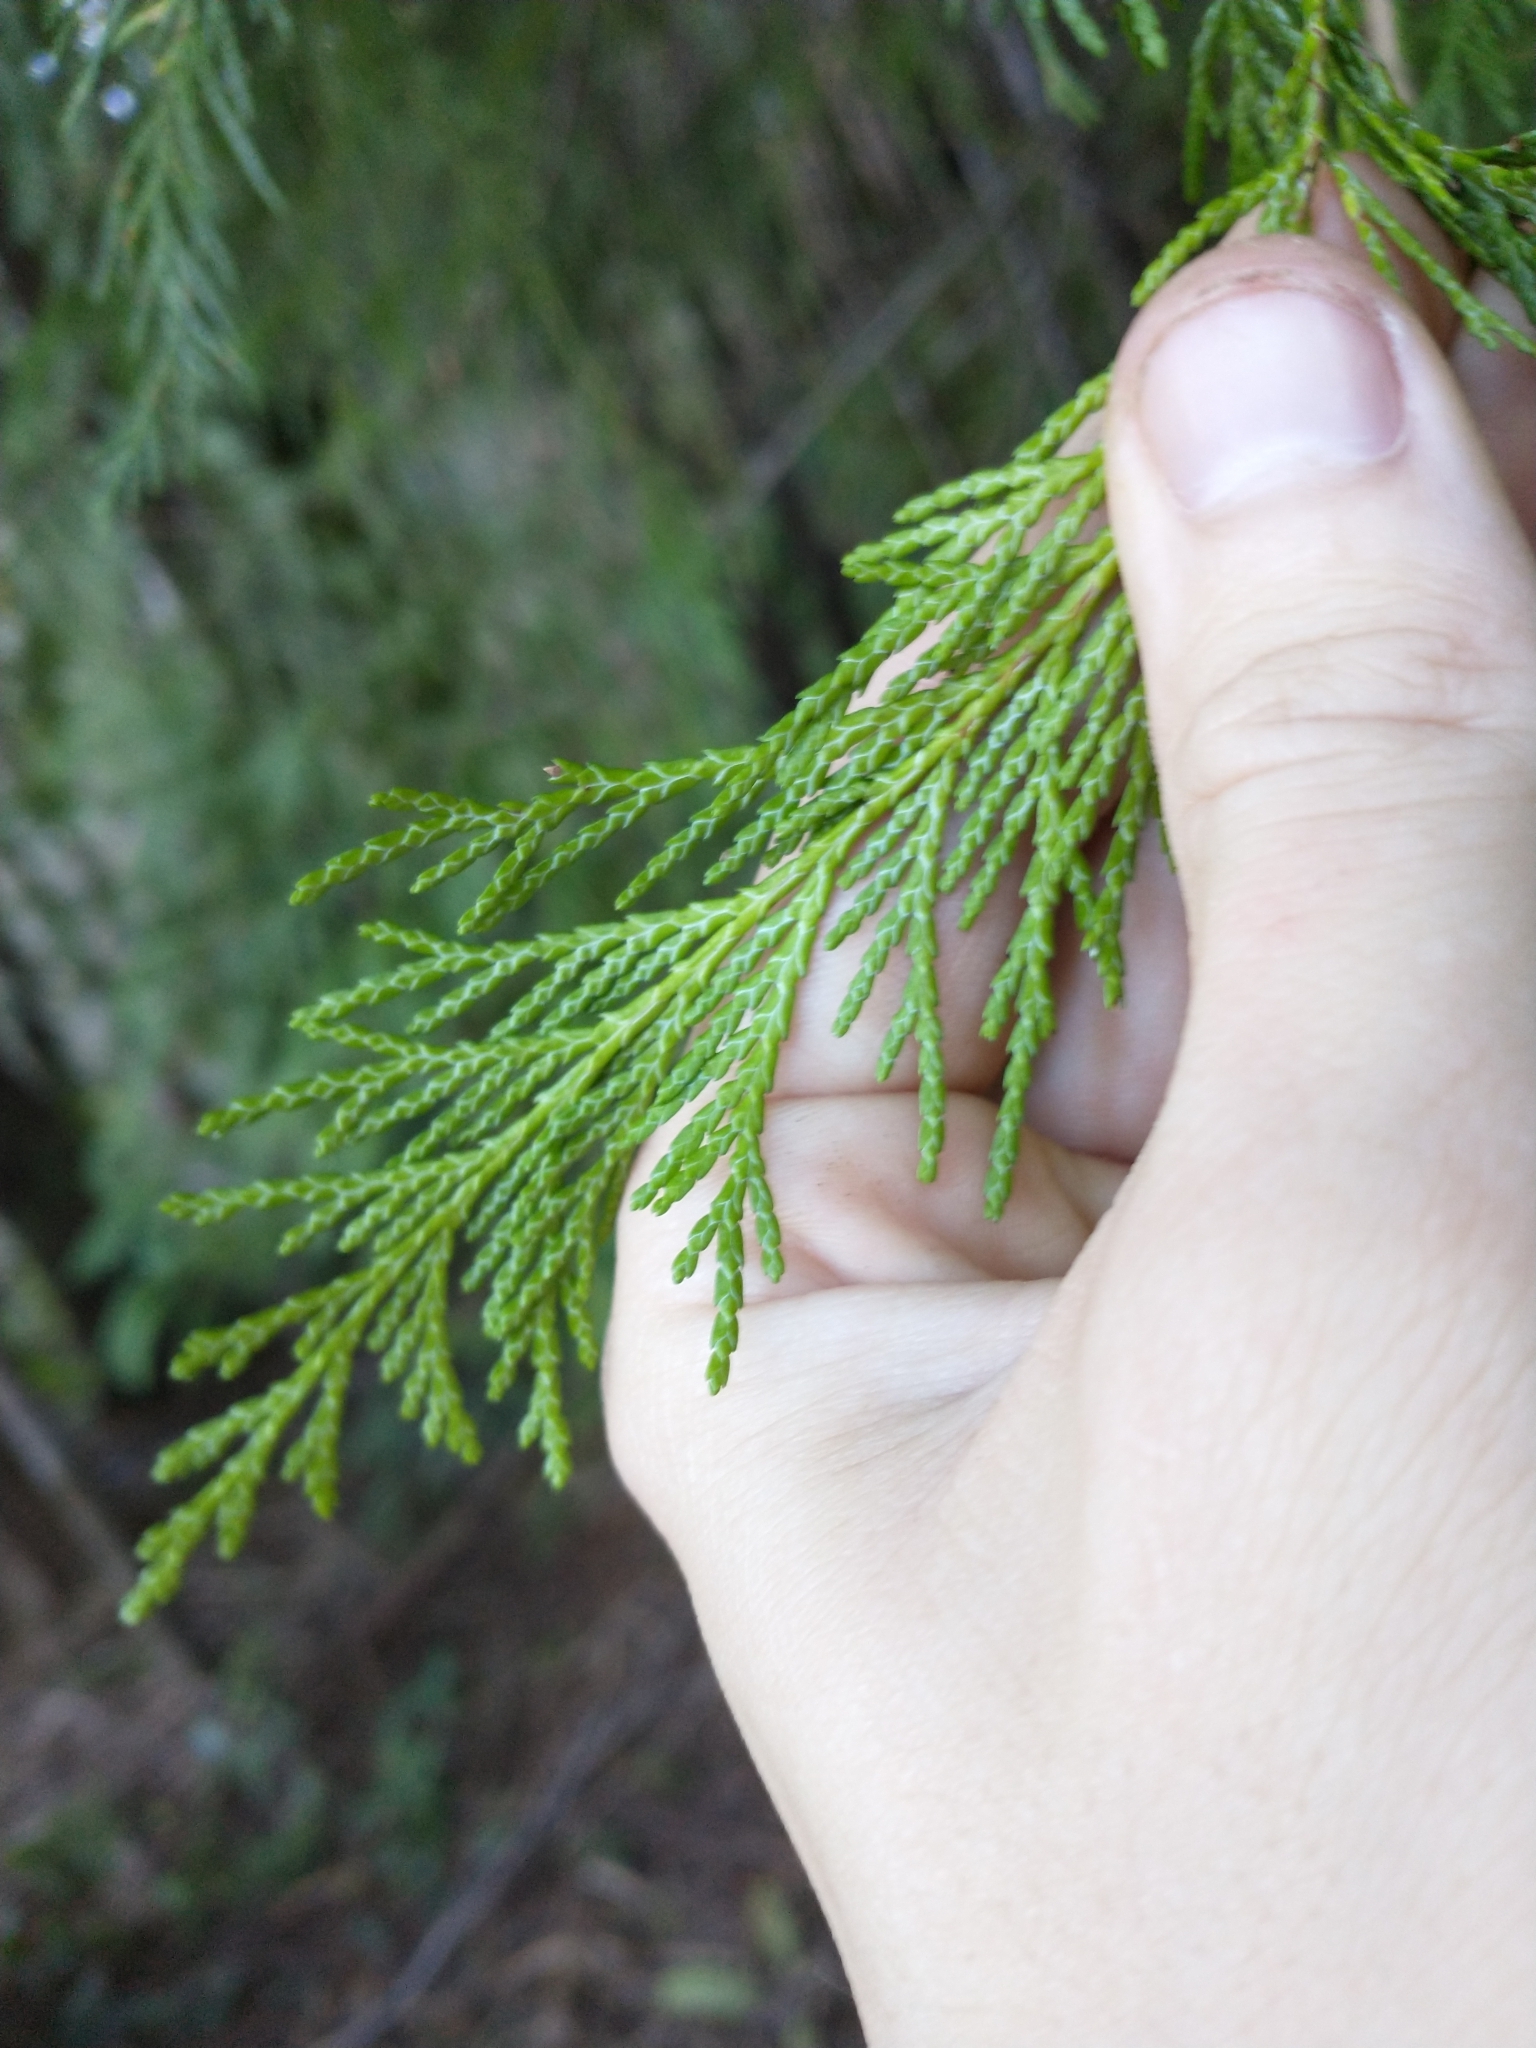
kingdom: Plantae
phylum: Tracheophyta
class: Pinopsida
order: Pinales
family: Cupressaceae
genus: Chamaecyparis
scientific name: Chamaecyparis lawsoniana
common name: Lawson's cypress
